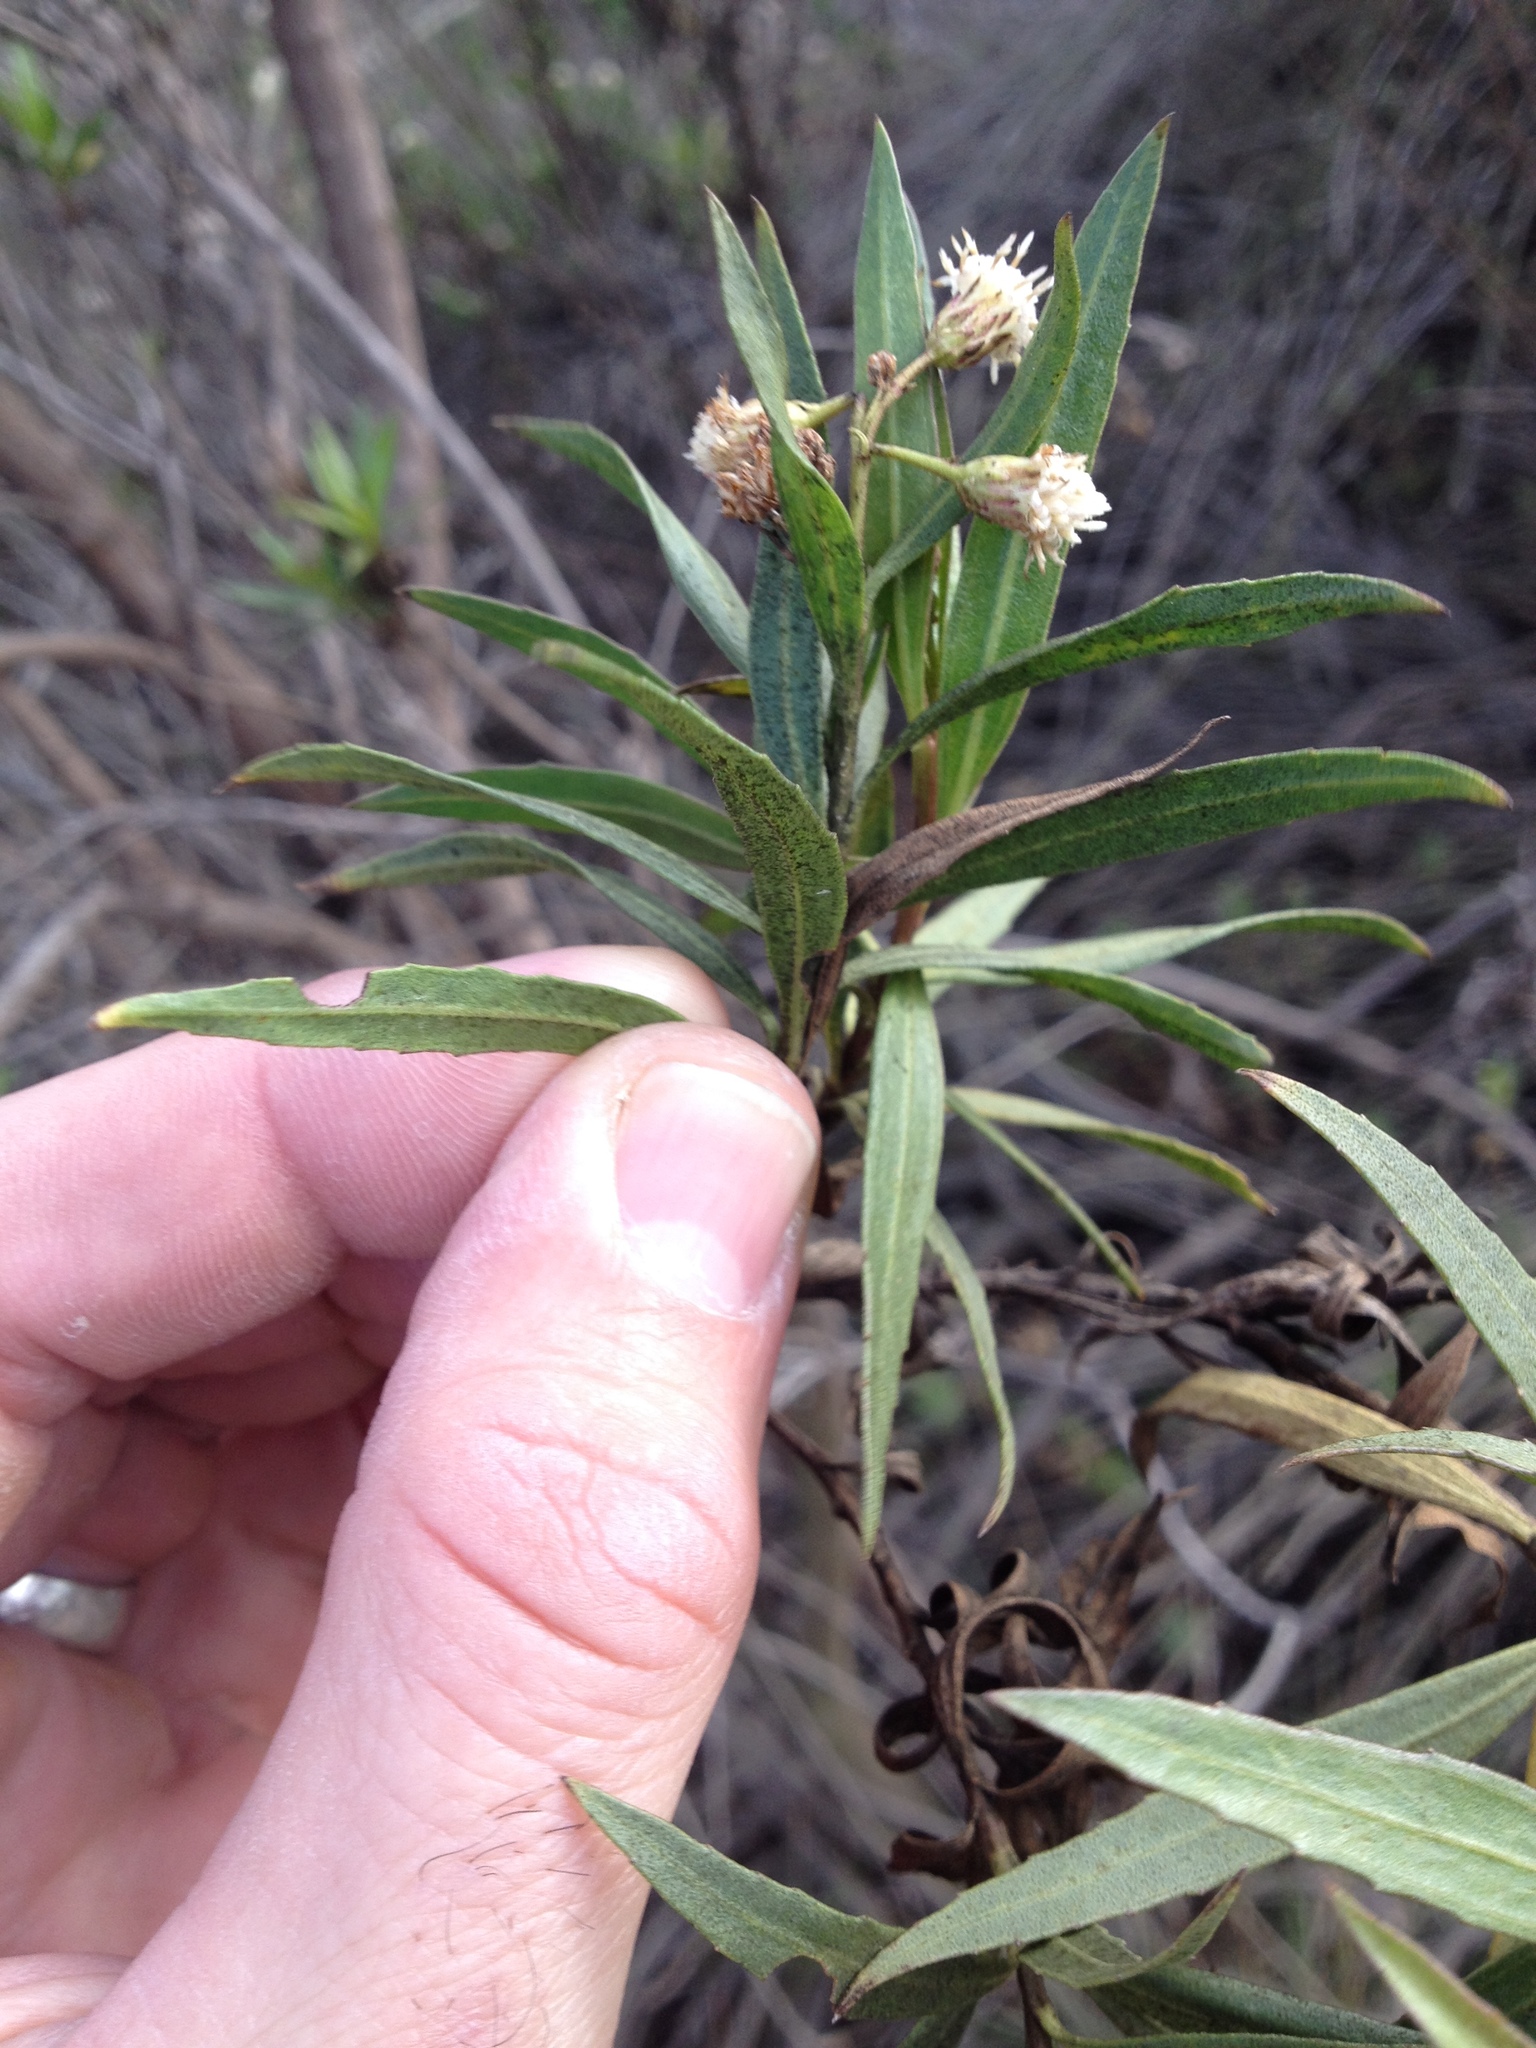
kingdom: Plantae
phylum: Tracheophyta
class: Magnoliopsida
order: Asterales
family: Asteraceae
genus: Baccharis
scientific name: Baccharis salicifolia
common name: Sticky baccharis
